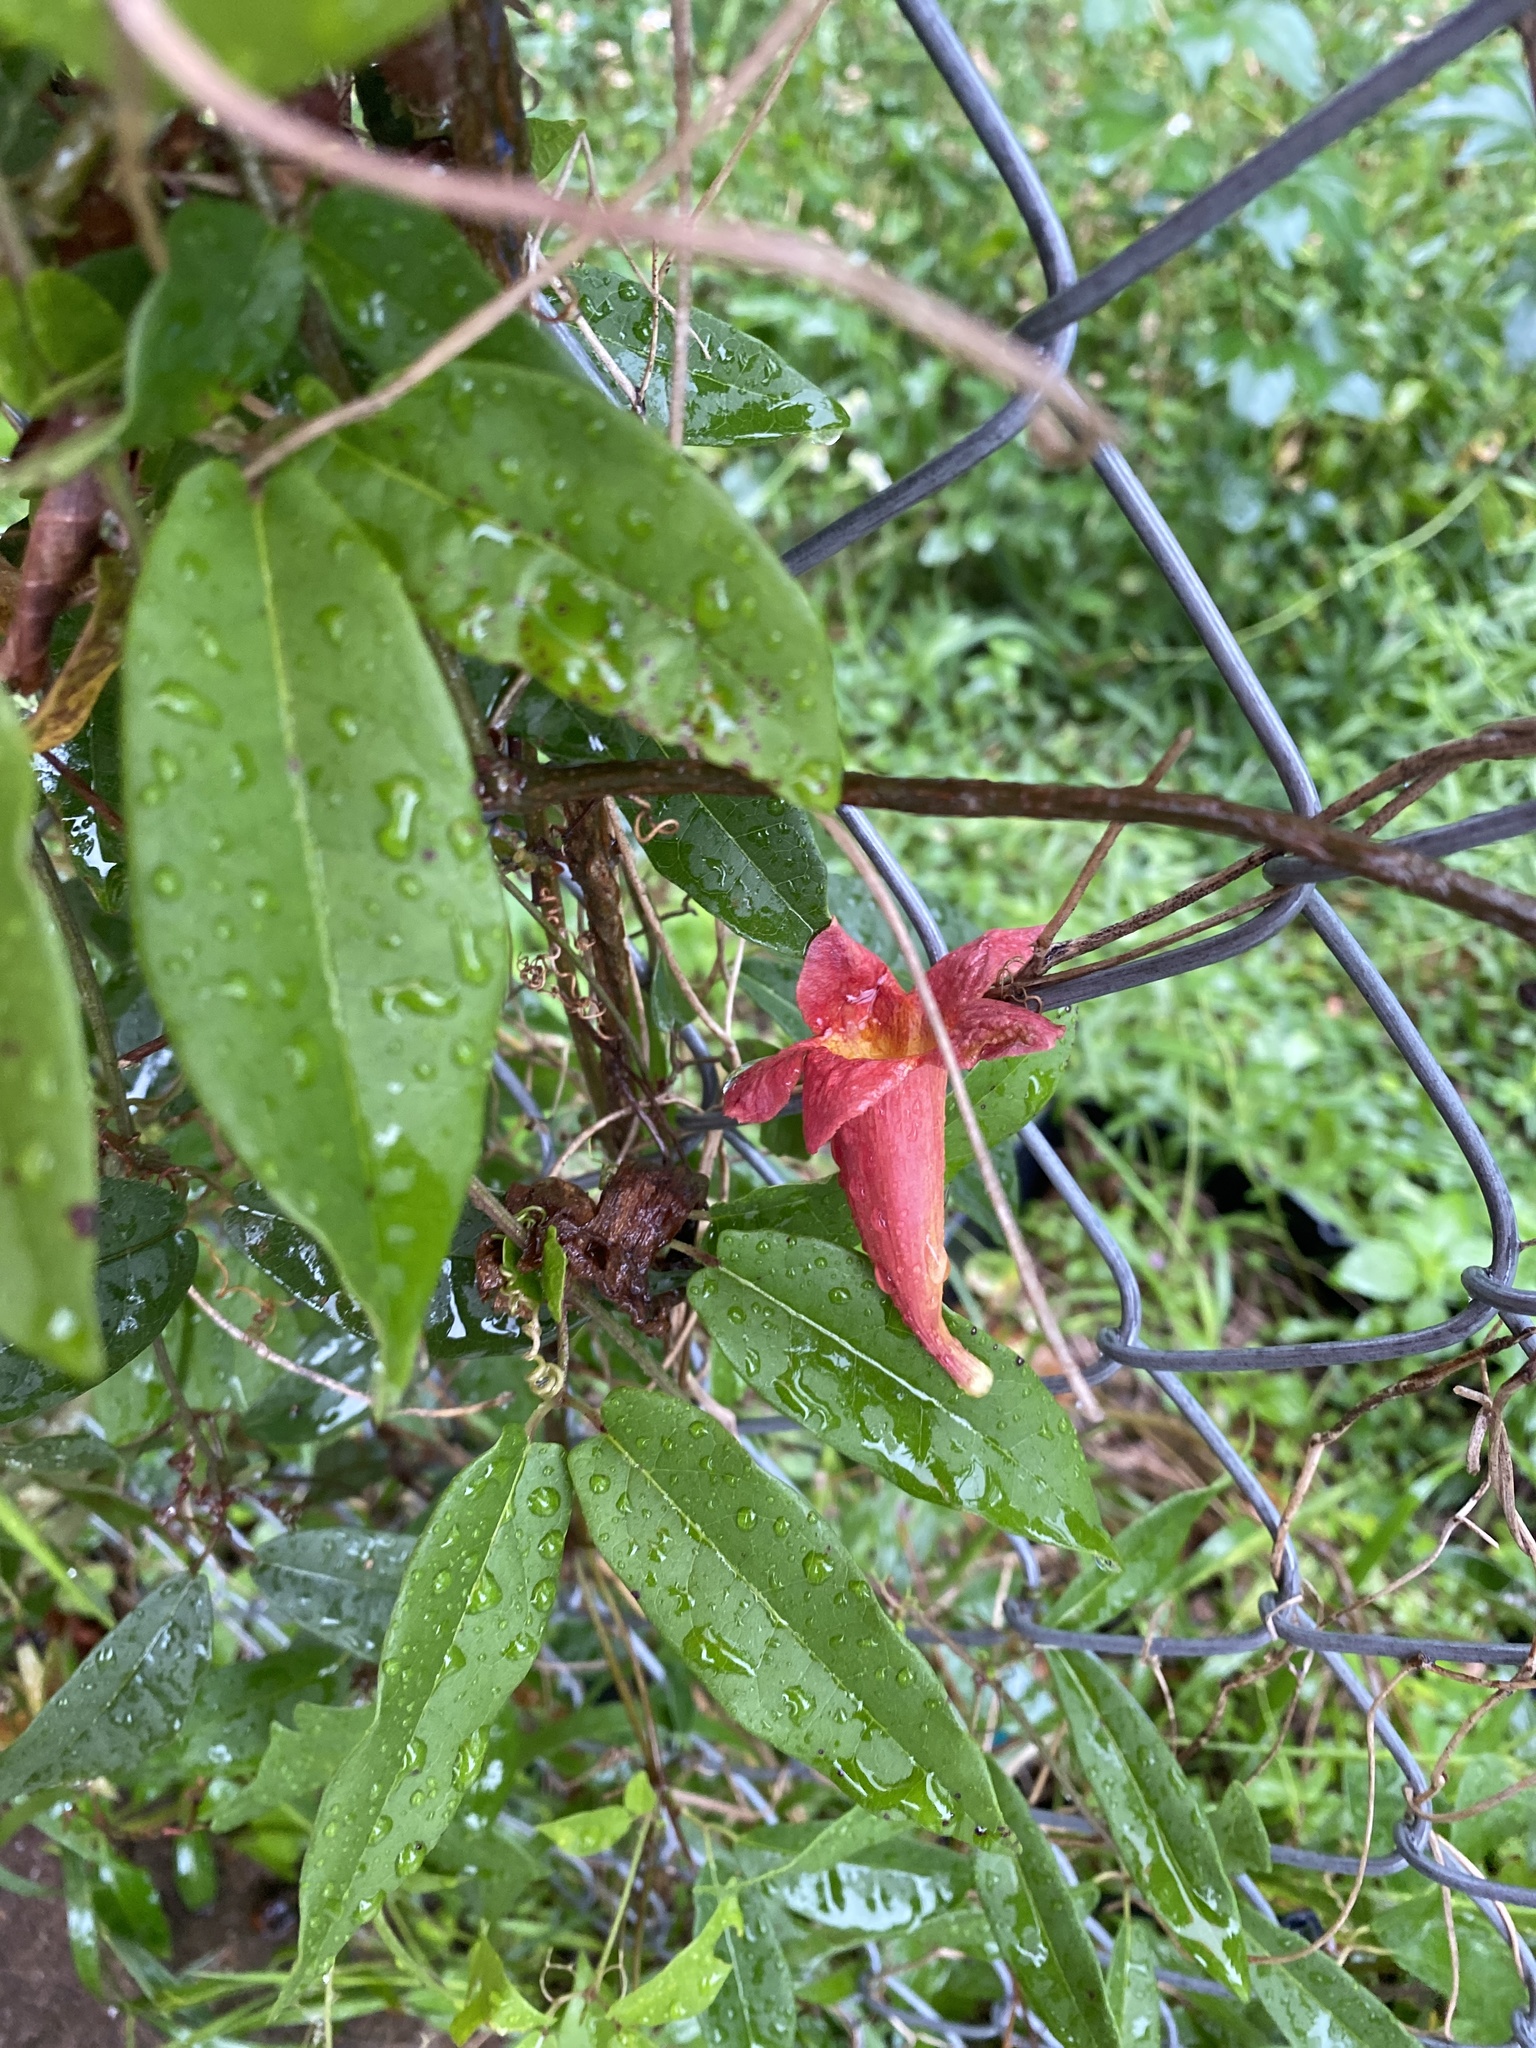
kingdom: Plantae
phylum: Tracheophyta
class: Magnoliopsida
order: Lamiales
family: Bignoniaceae
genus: Bignonia
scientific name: Bignonia capreolata
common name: Crossvine
